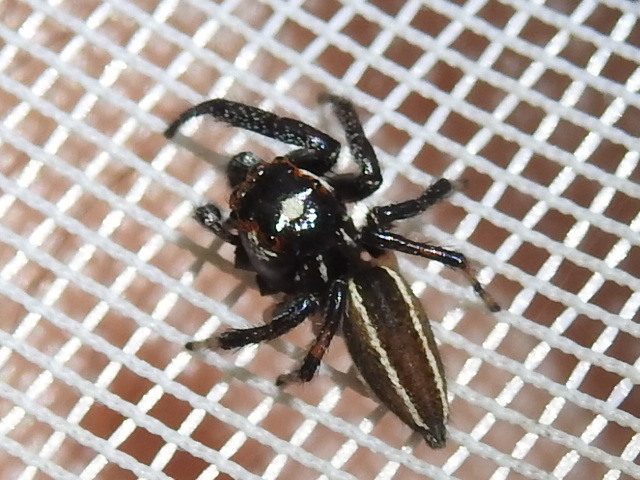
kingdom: Animalia
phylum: Arthropoda
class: Arachnida
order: Araneae
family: Salticidae
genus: Colonus
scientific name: Colonus sylvanus
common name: Jumping spiders
